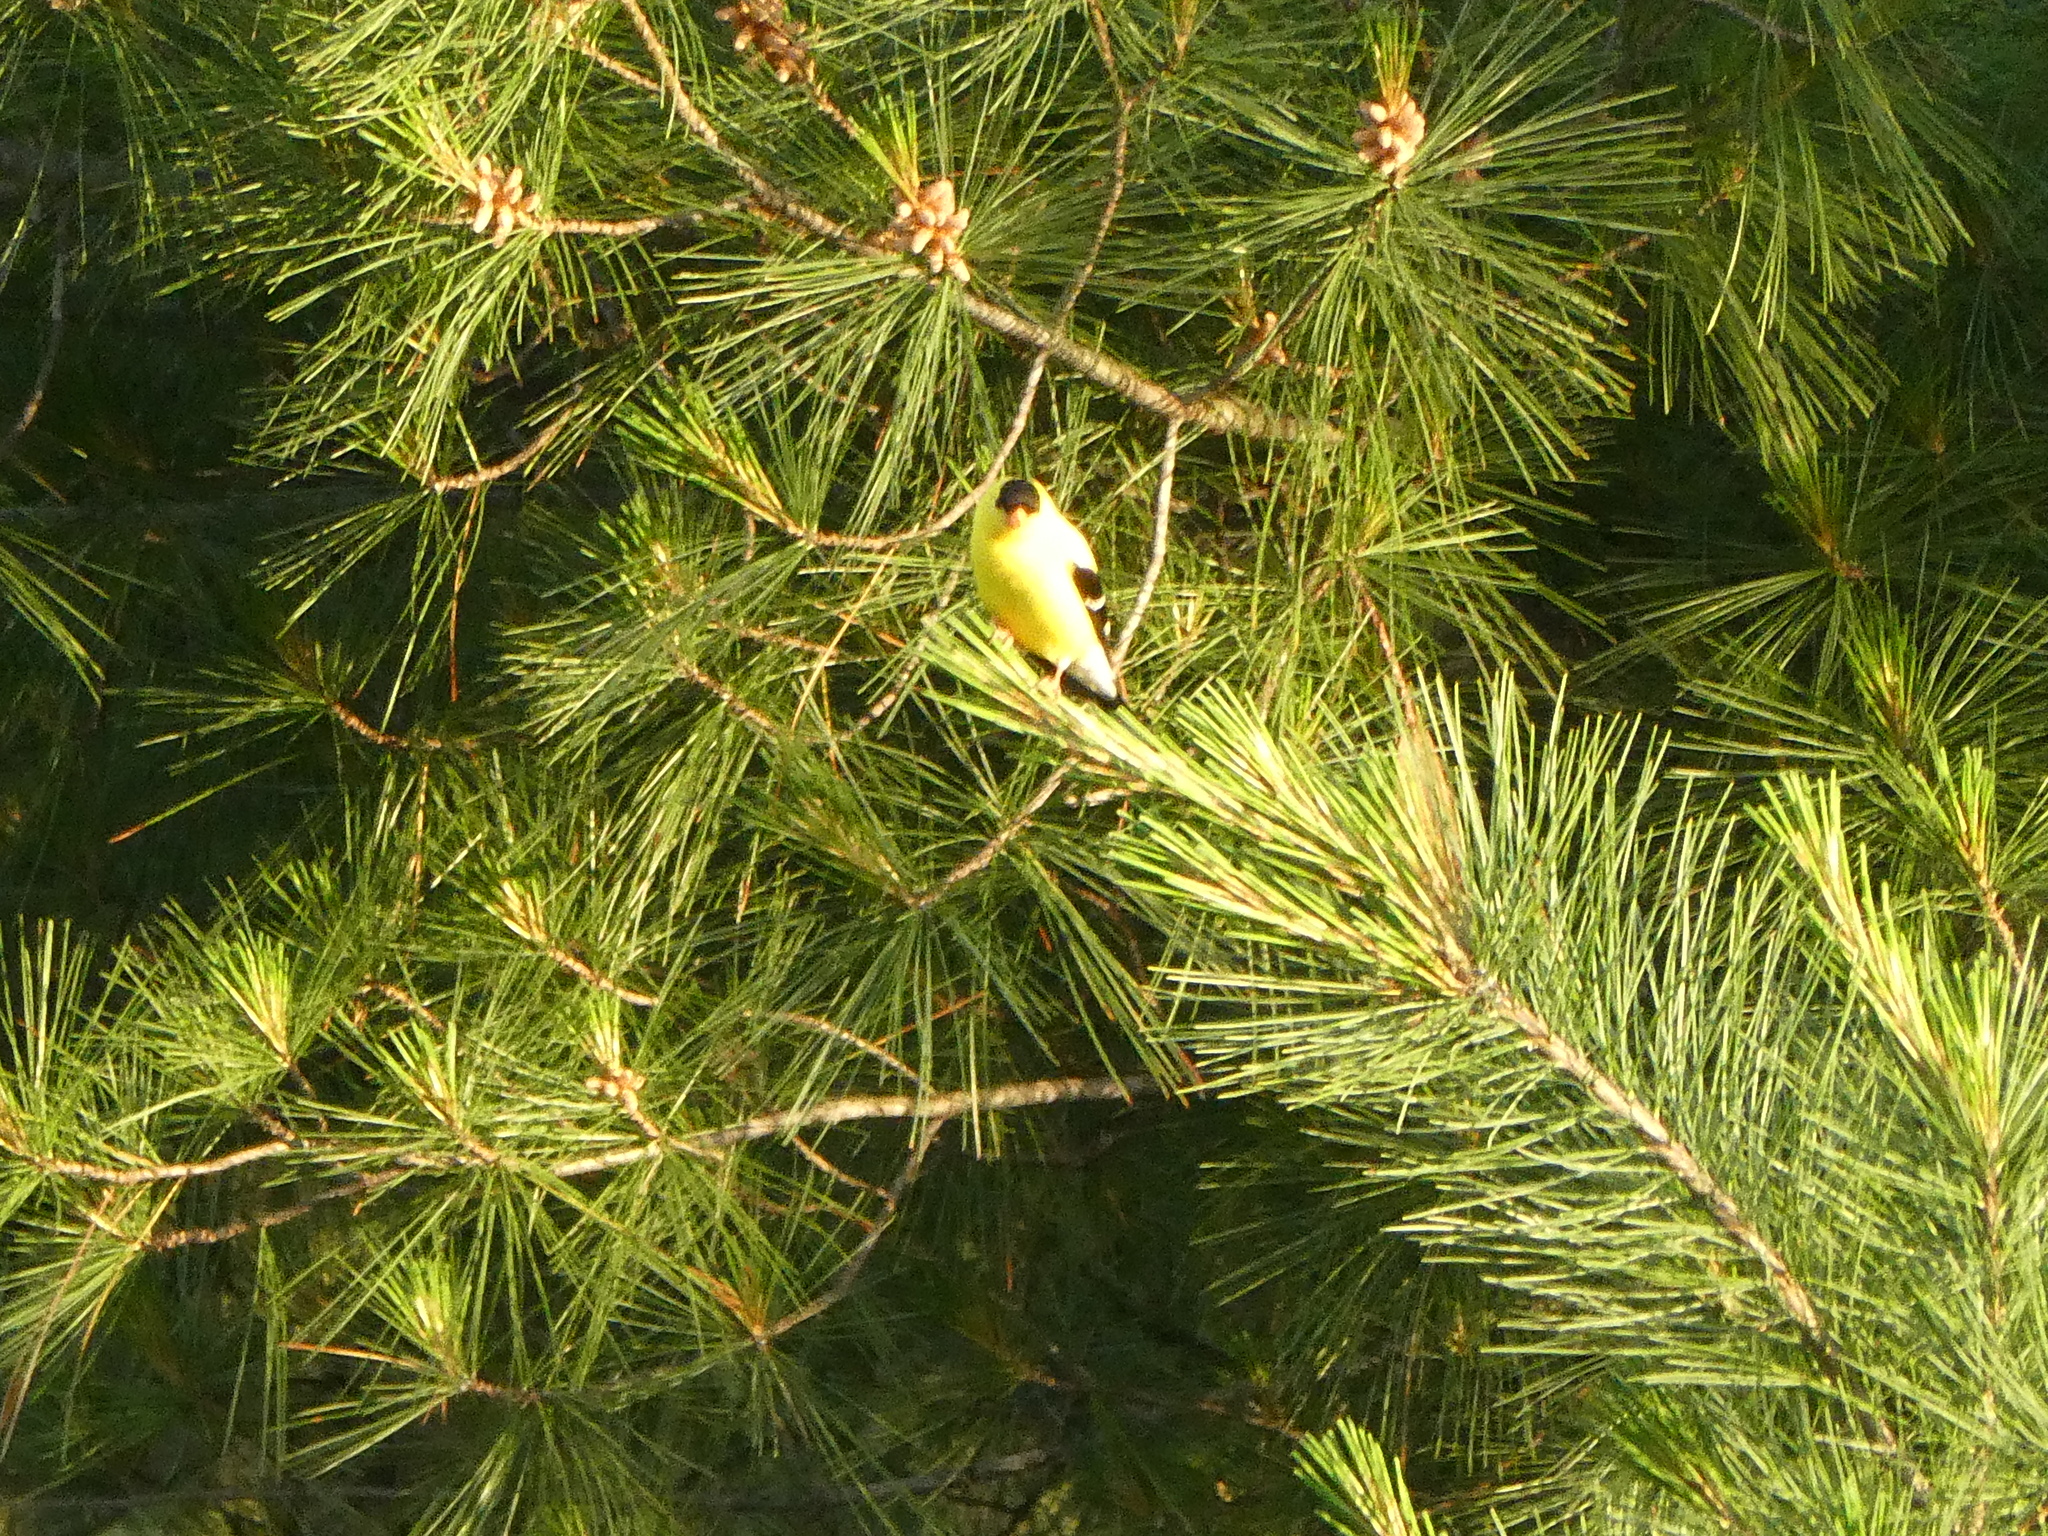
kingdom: Animalia
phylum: Chordata
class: Aves
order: Passeriformes
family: Fringillidae
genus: Spinus
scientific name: Spinus tristis
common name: American goldfinch
